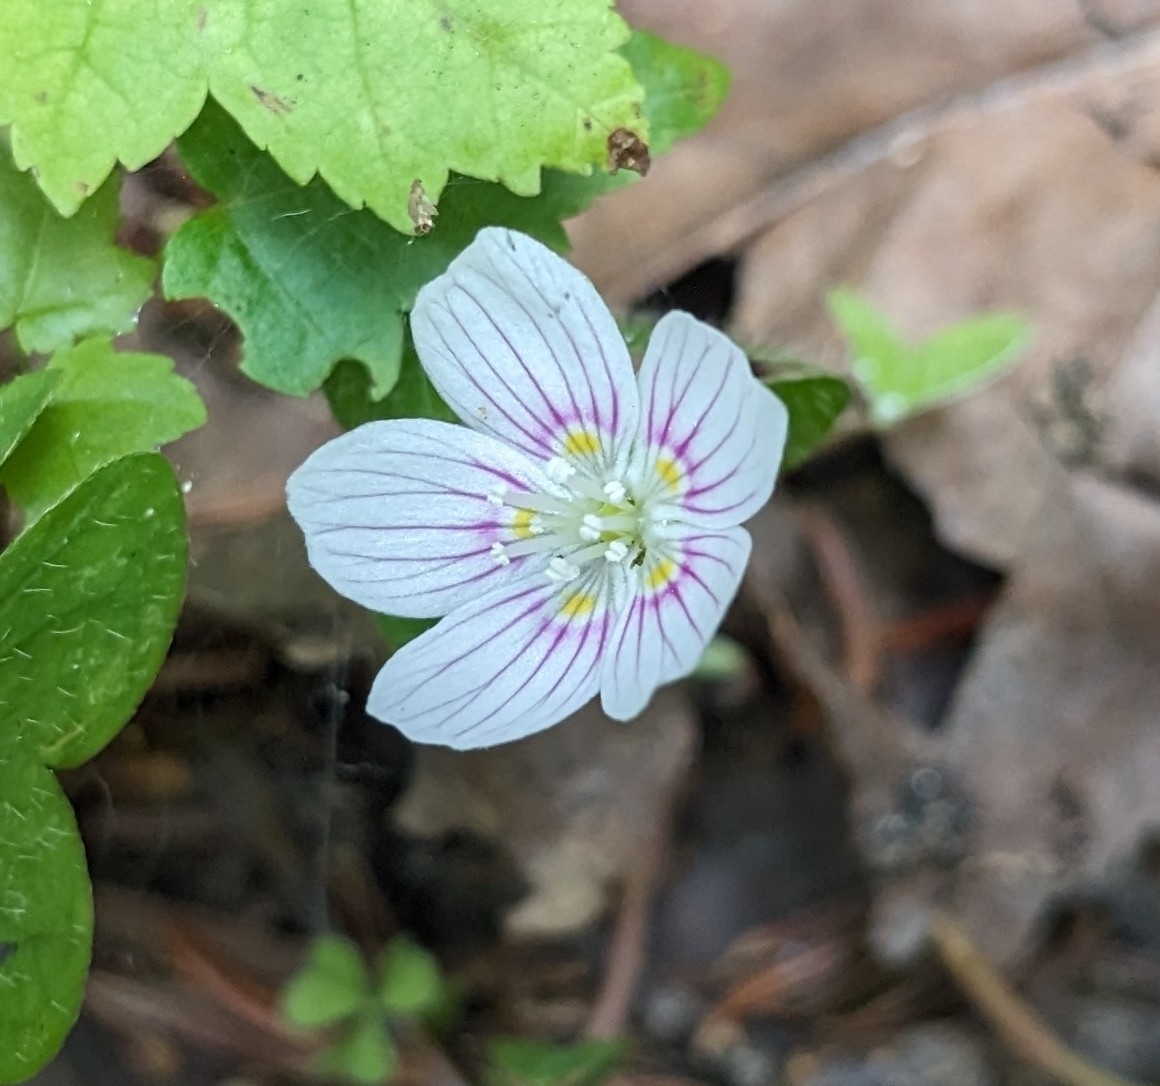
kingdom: Plantae
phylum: Tracheophyta
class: Magnoliopsida
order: Oxalidales
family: Oxalidaceae
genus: Oxalis
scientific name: Oxalis montana
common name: American wood-sorrel
